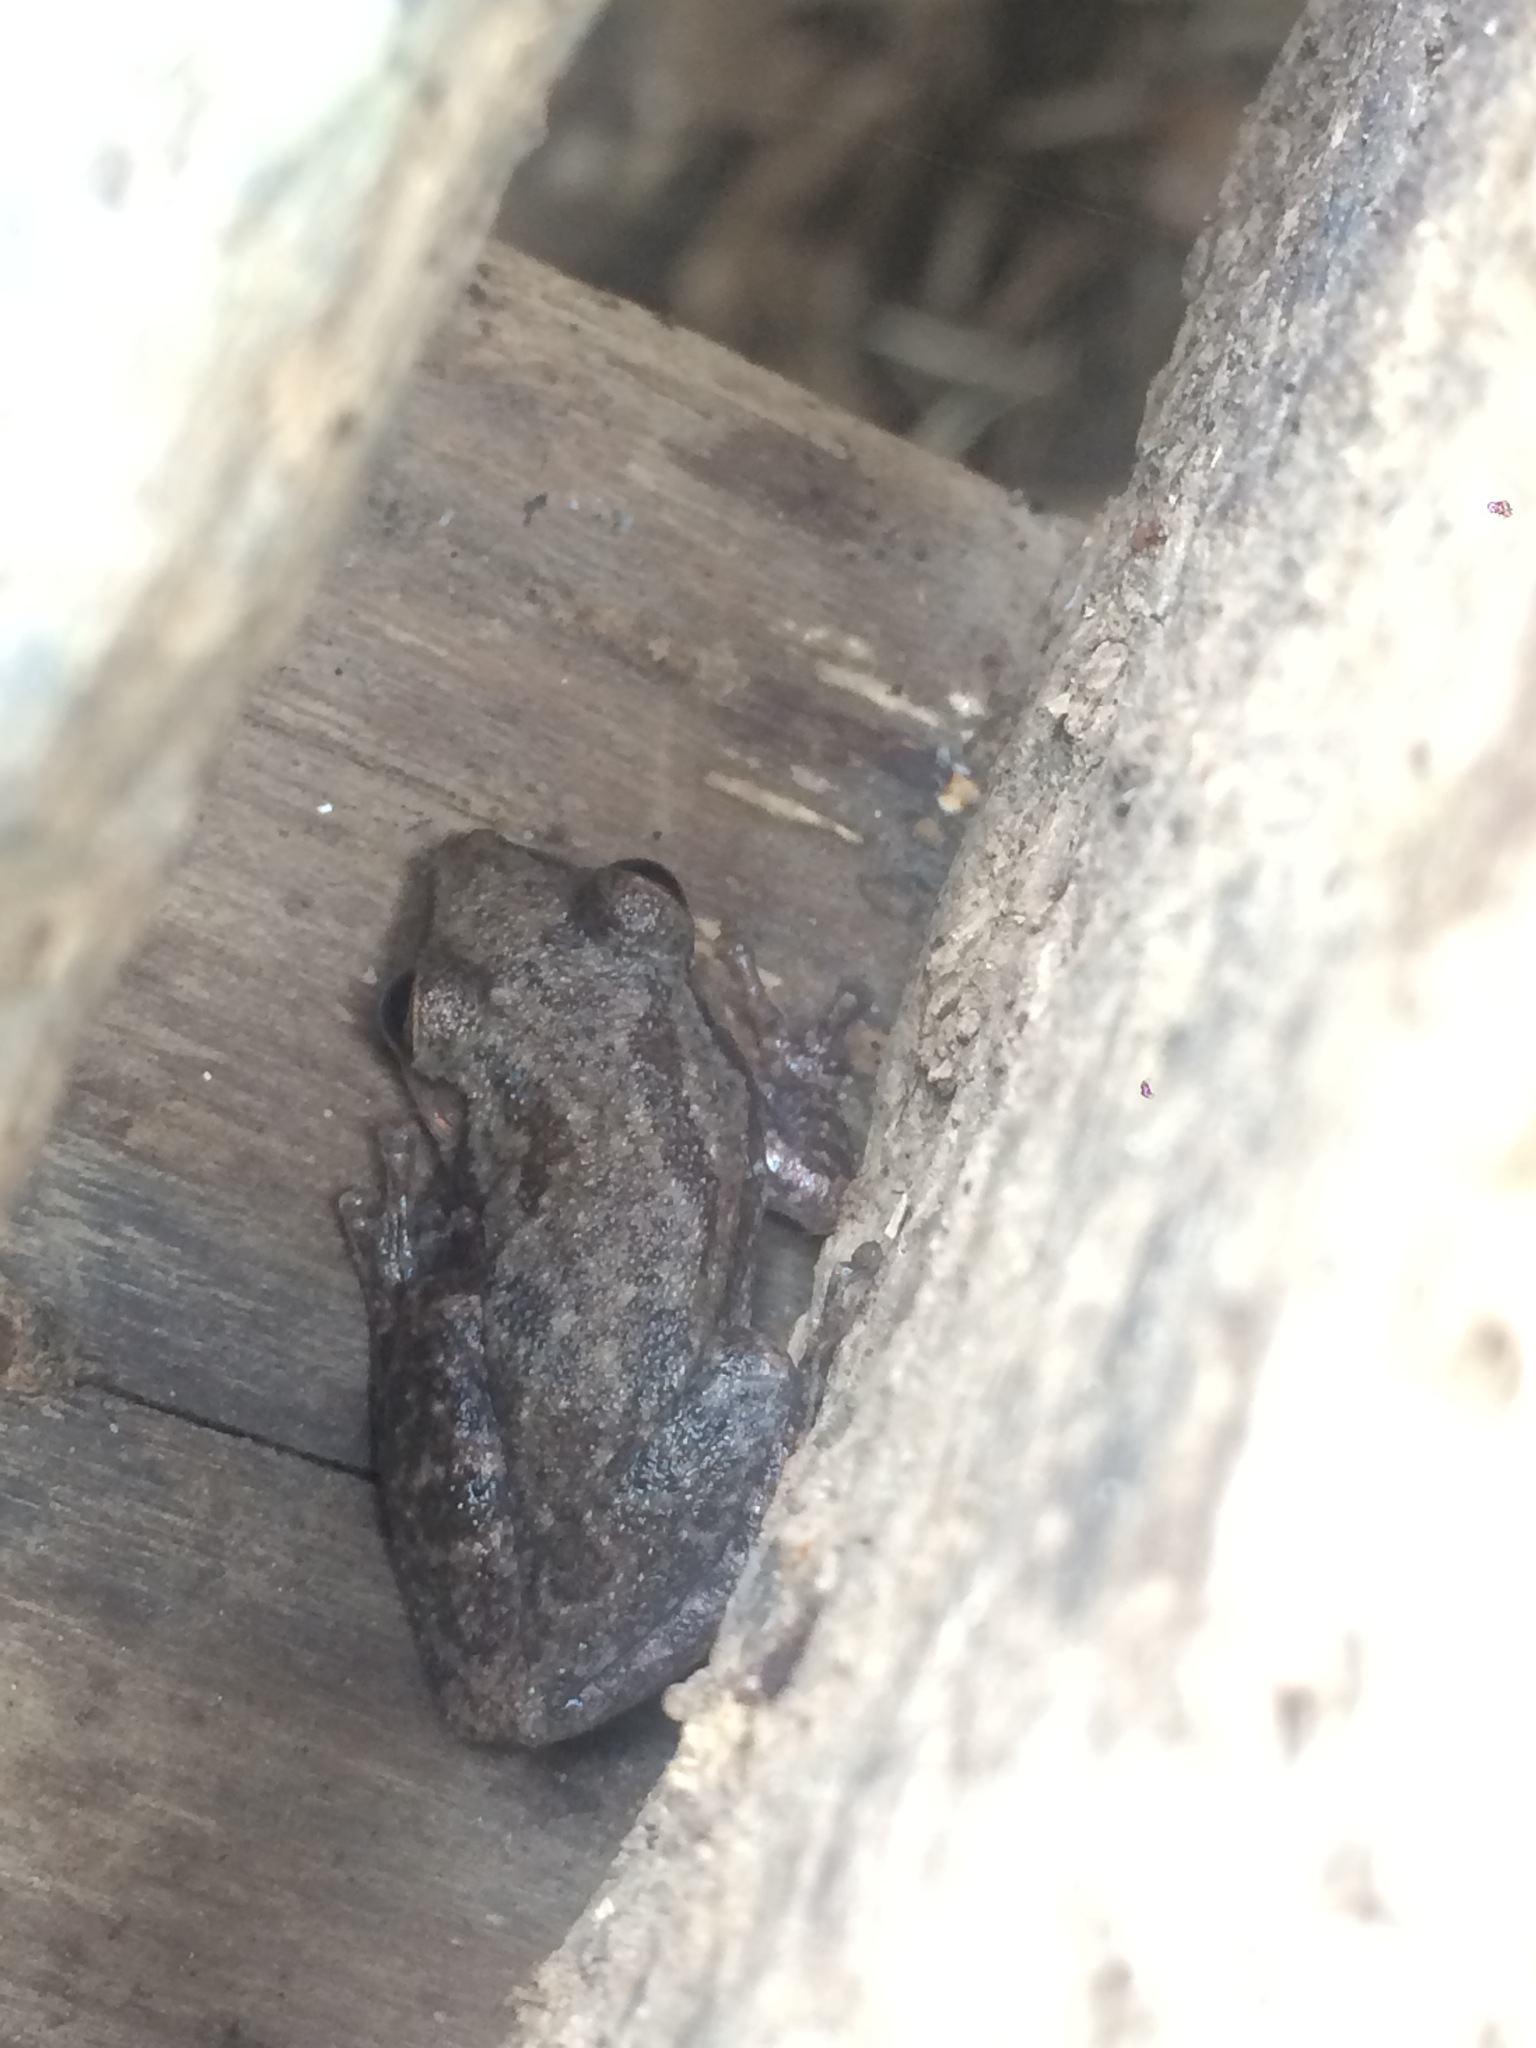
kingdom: Animalia
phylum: Chordata
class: Amphibia
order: Anura
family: Hylidae
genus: Scinax
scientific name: Scinax nasicus
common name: Lesser snouted treefrog
